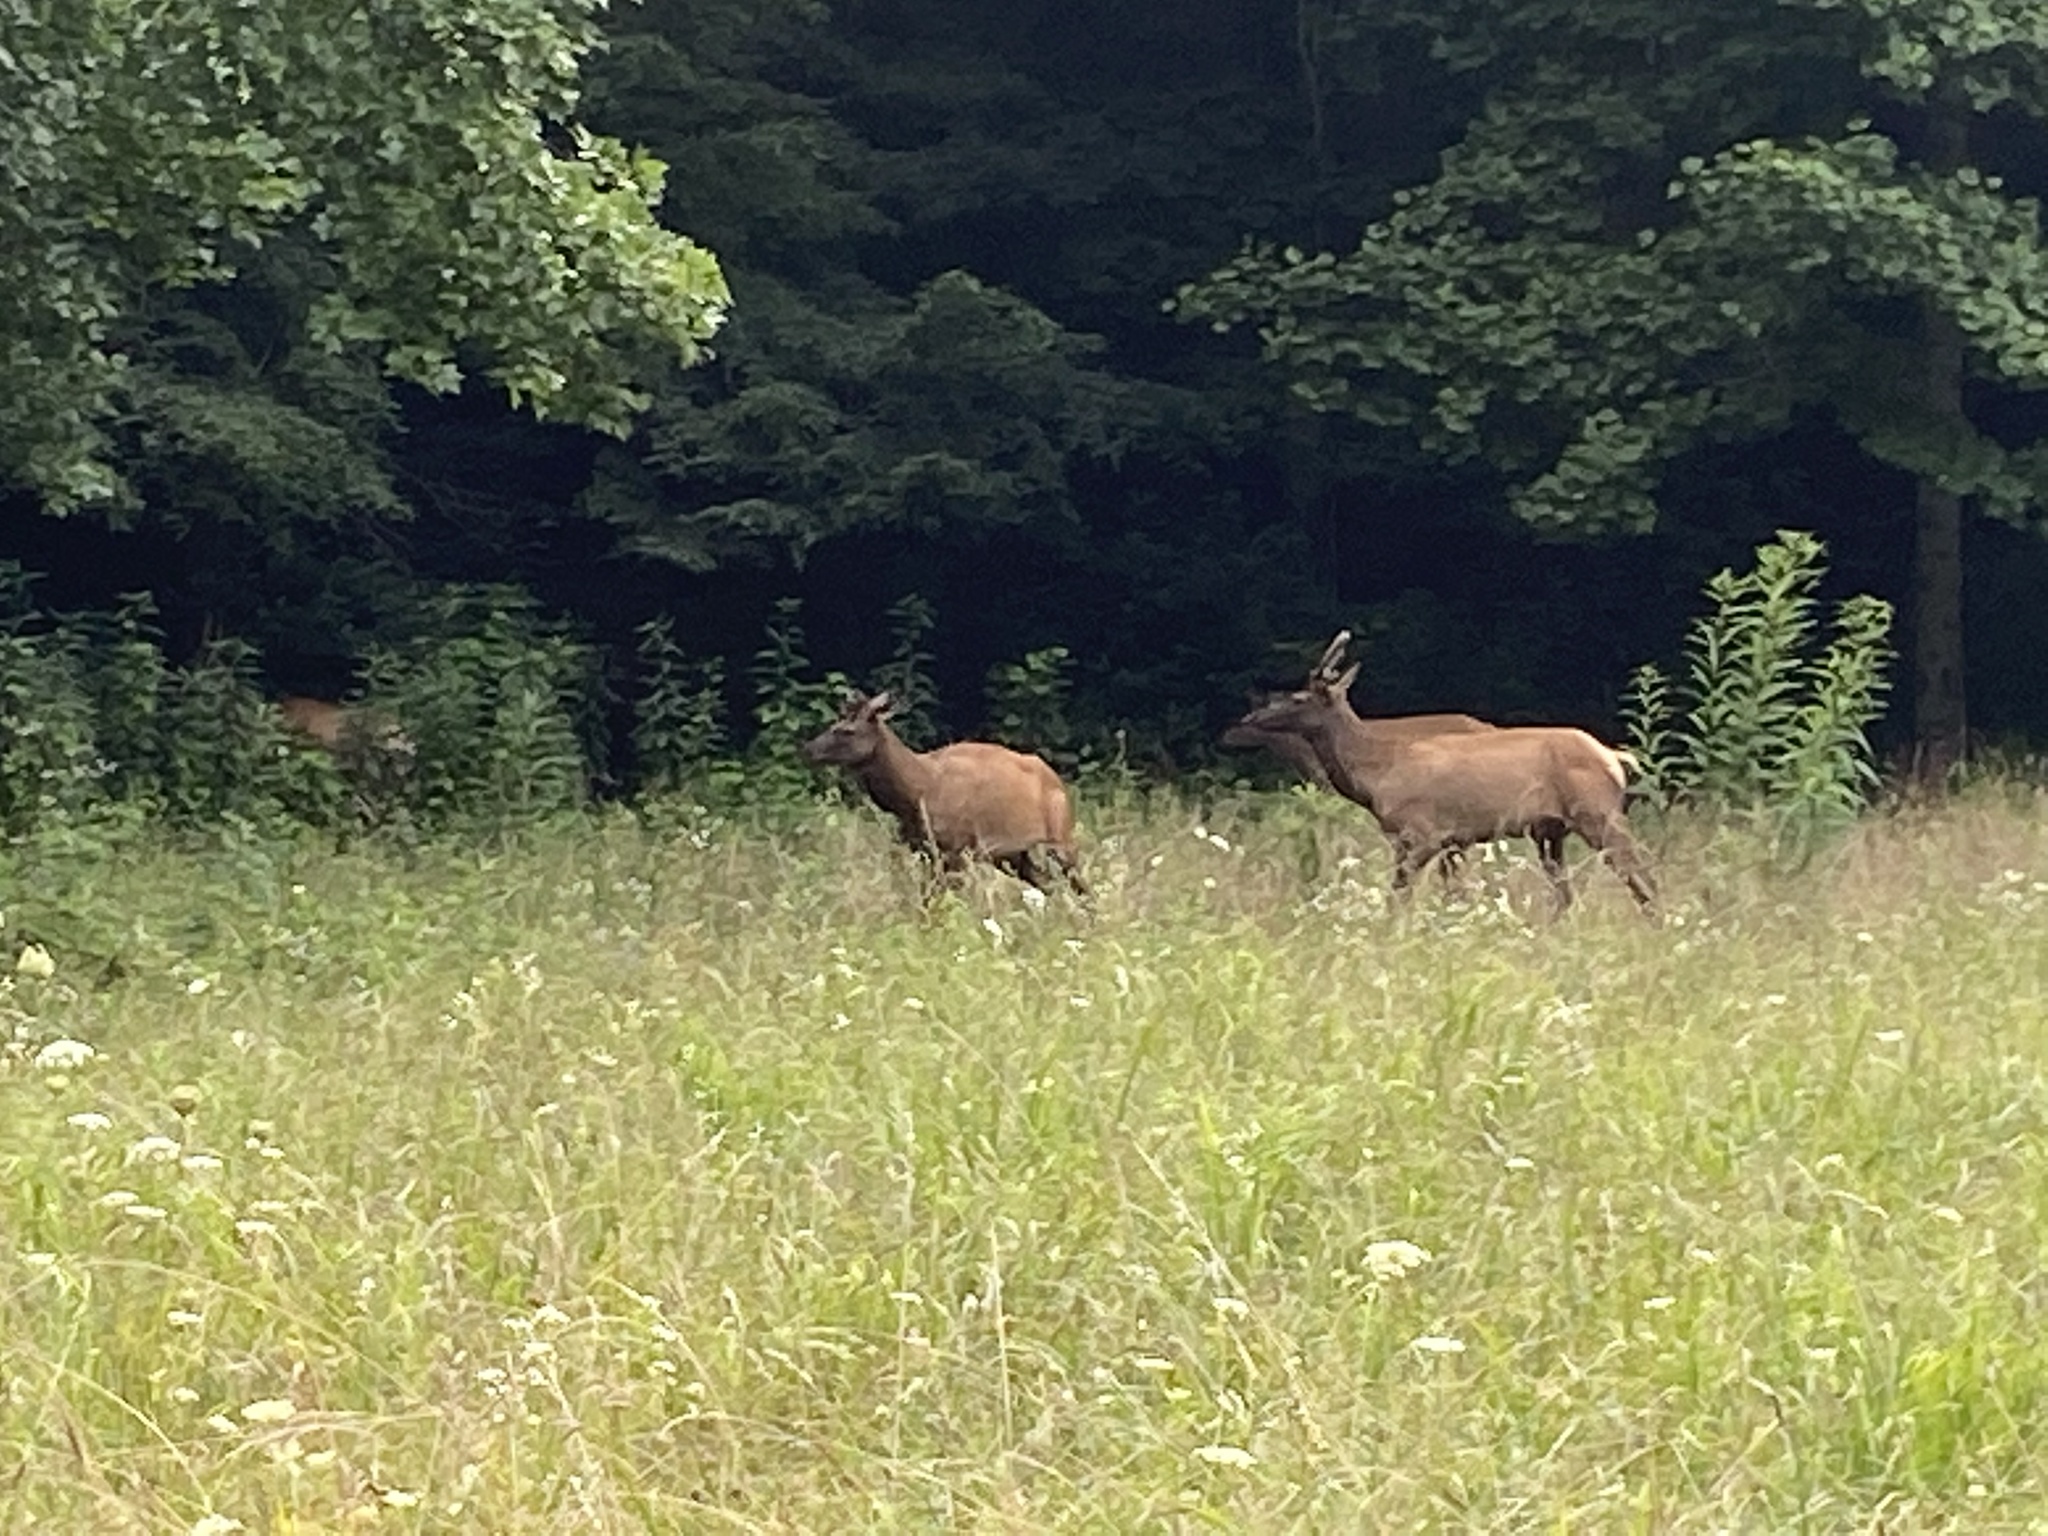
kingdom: Animalia
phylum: Chordata
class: Mammalia
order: Artiodactyla
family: Cervidae
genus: Cervus
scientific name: Cervus elaphus
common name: Red deer
